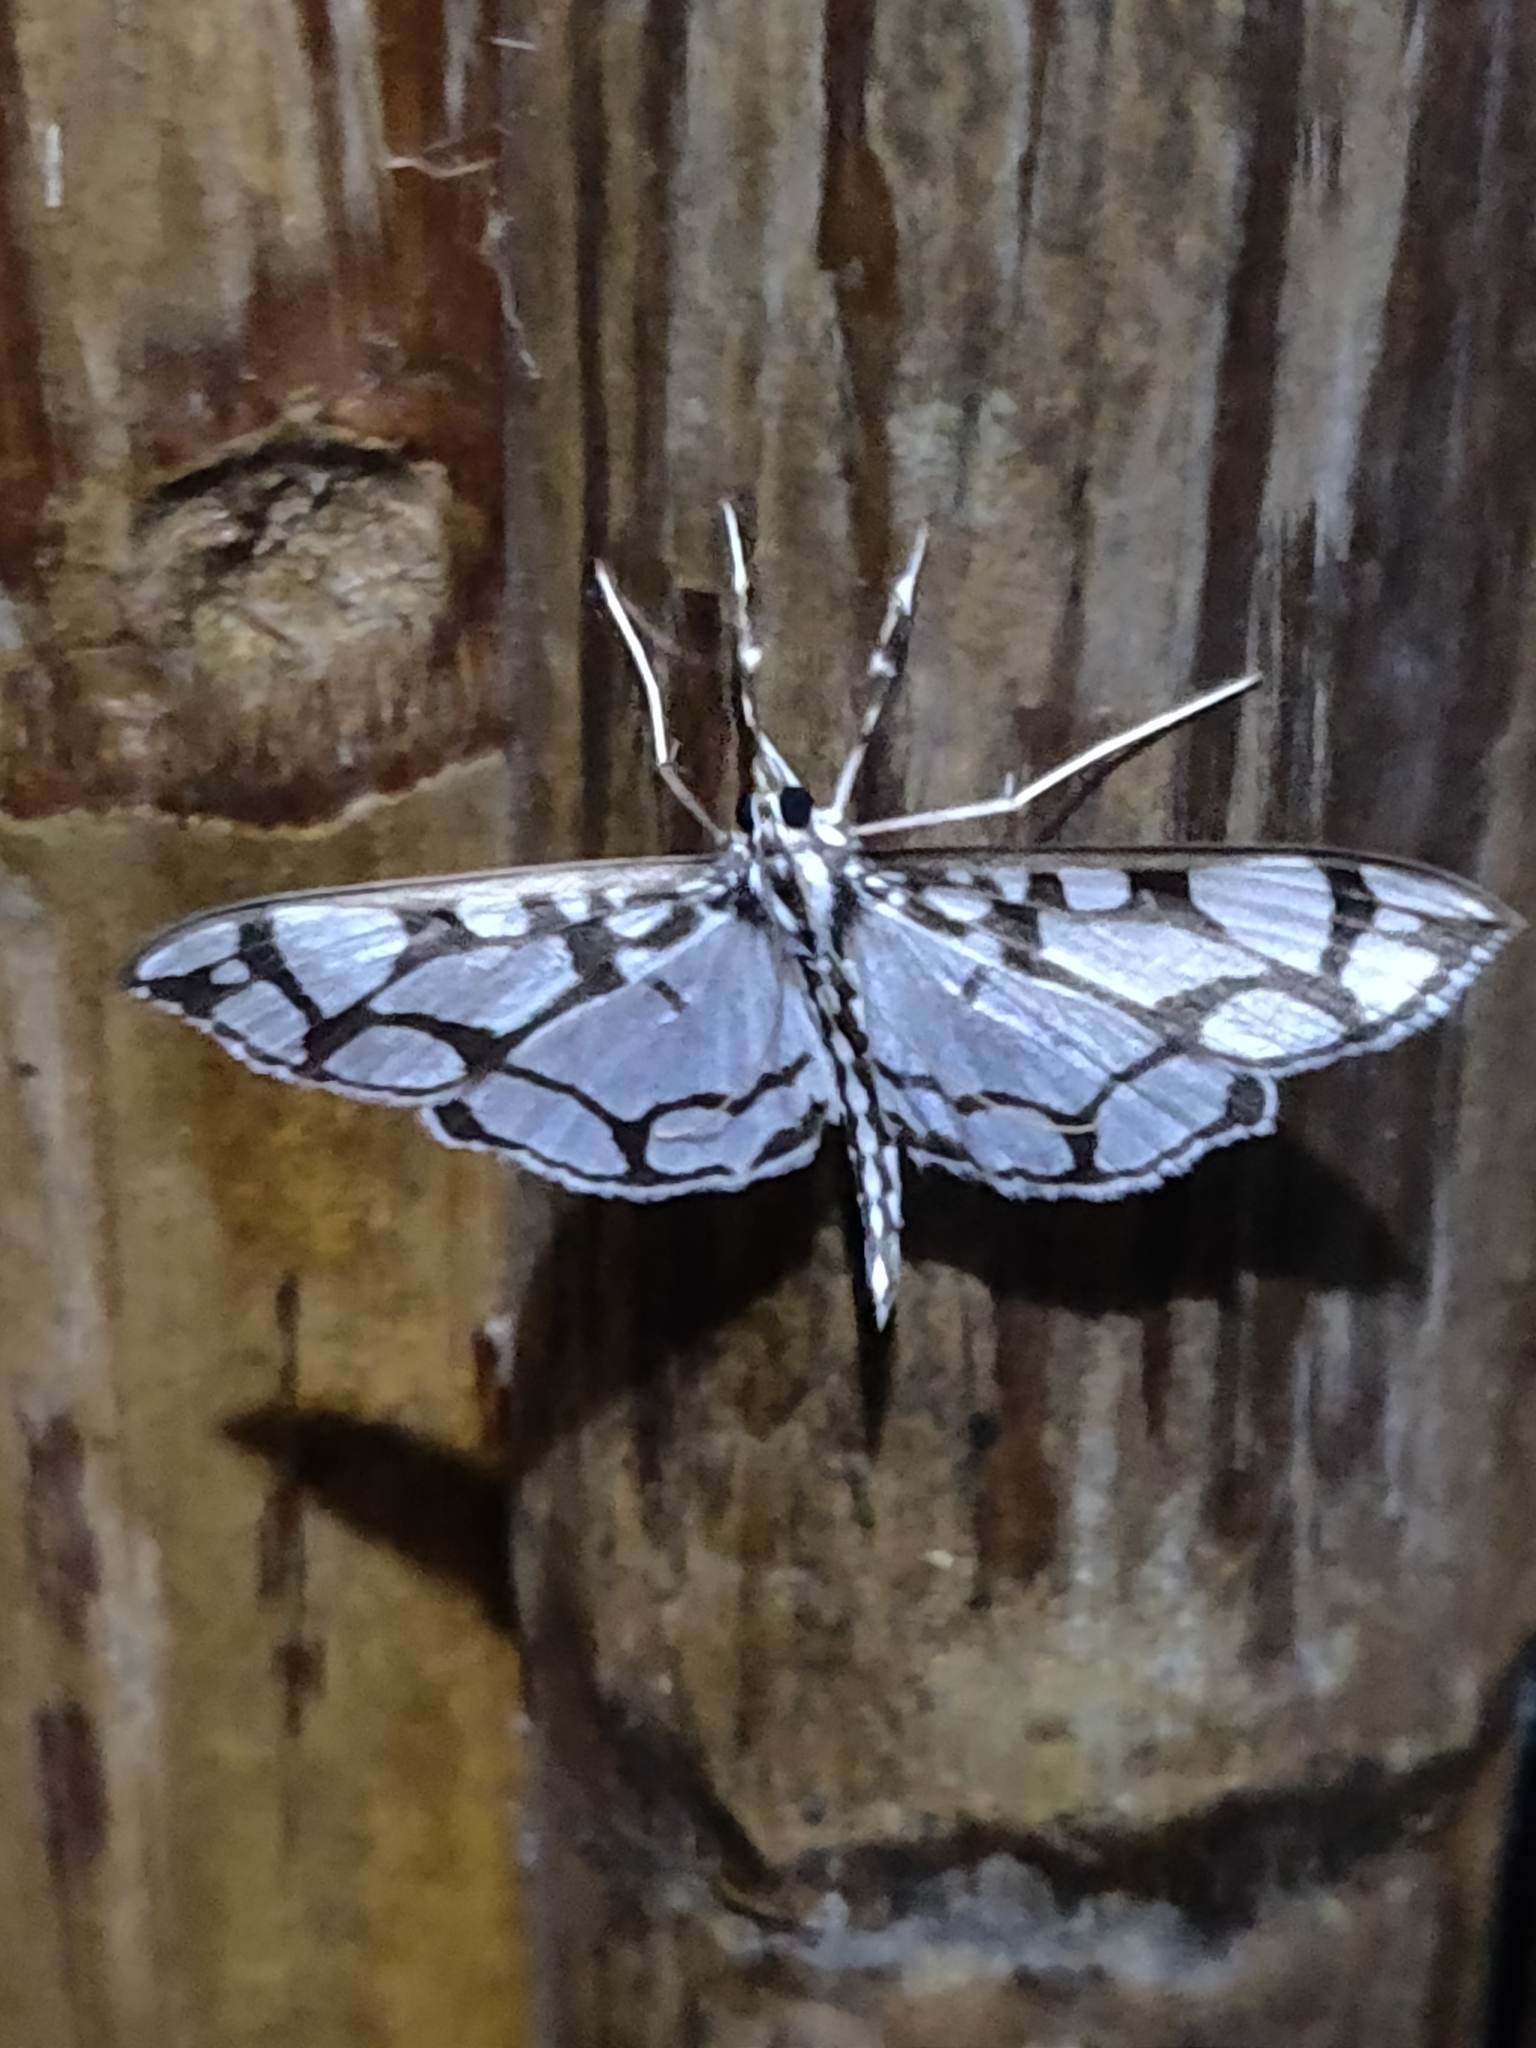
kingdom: Animalia
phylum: Arthropoda
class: Insecta
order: Lepidoptera
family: Crambidae
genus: Polythlipta
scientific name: Polythlipta cerealis
